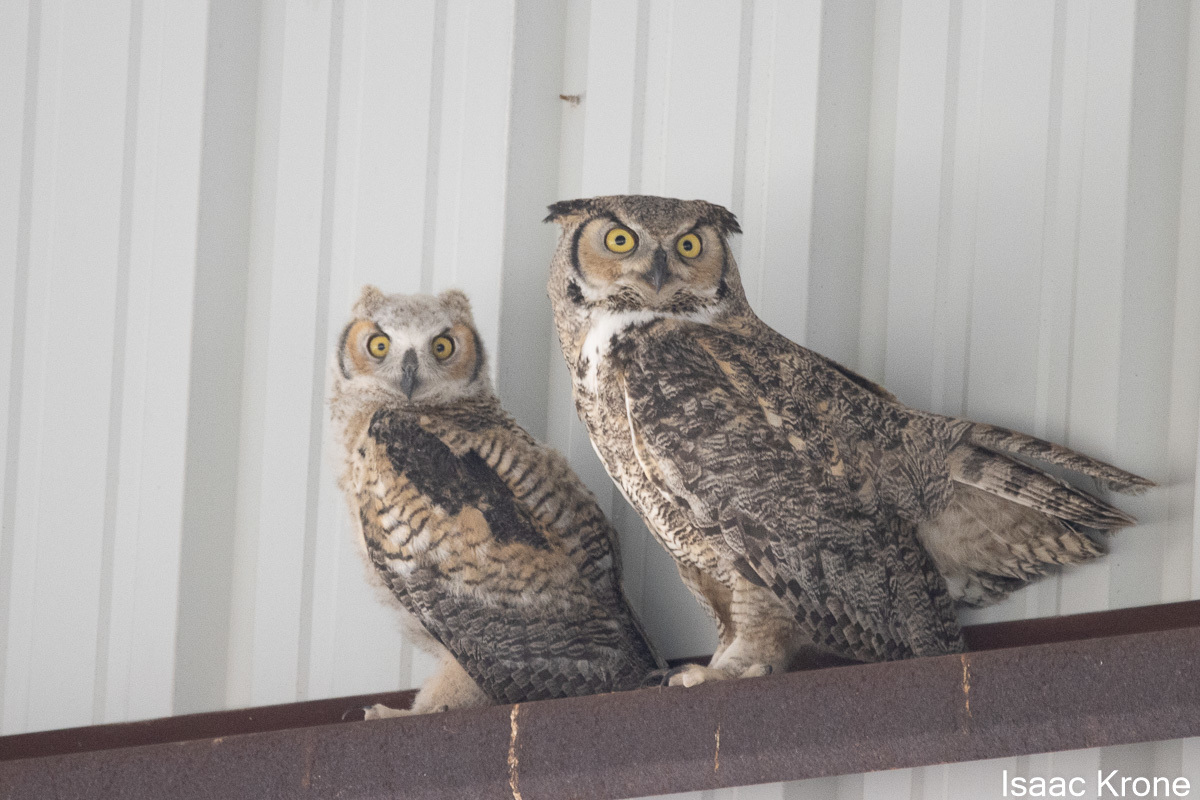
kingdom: Animalia
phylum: Chordata
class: Aves
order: Strigiformes
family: Strigidae
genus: Bubo
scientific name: Bubo virginianus
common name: Great horned owl
